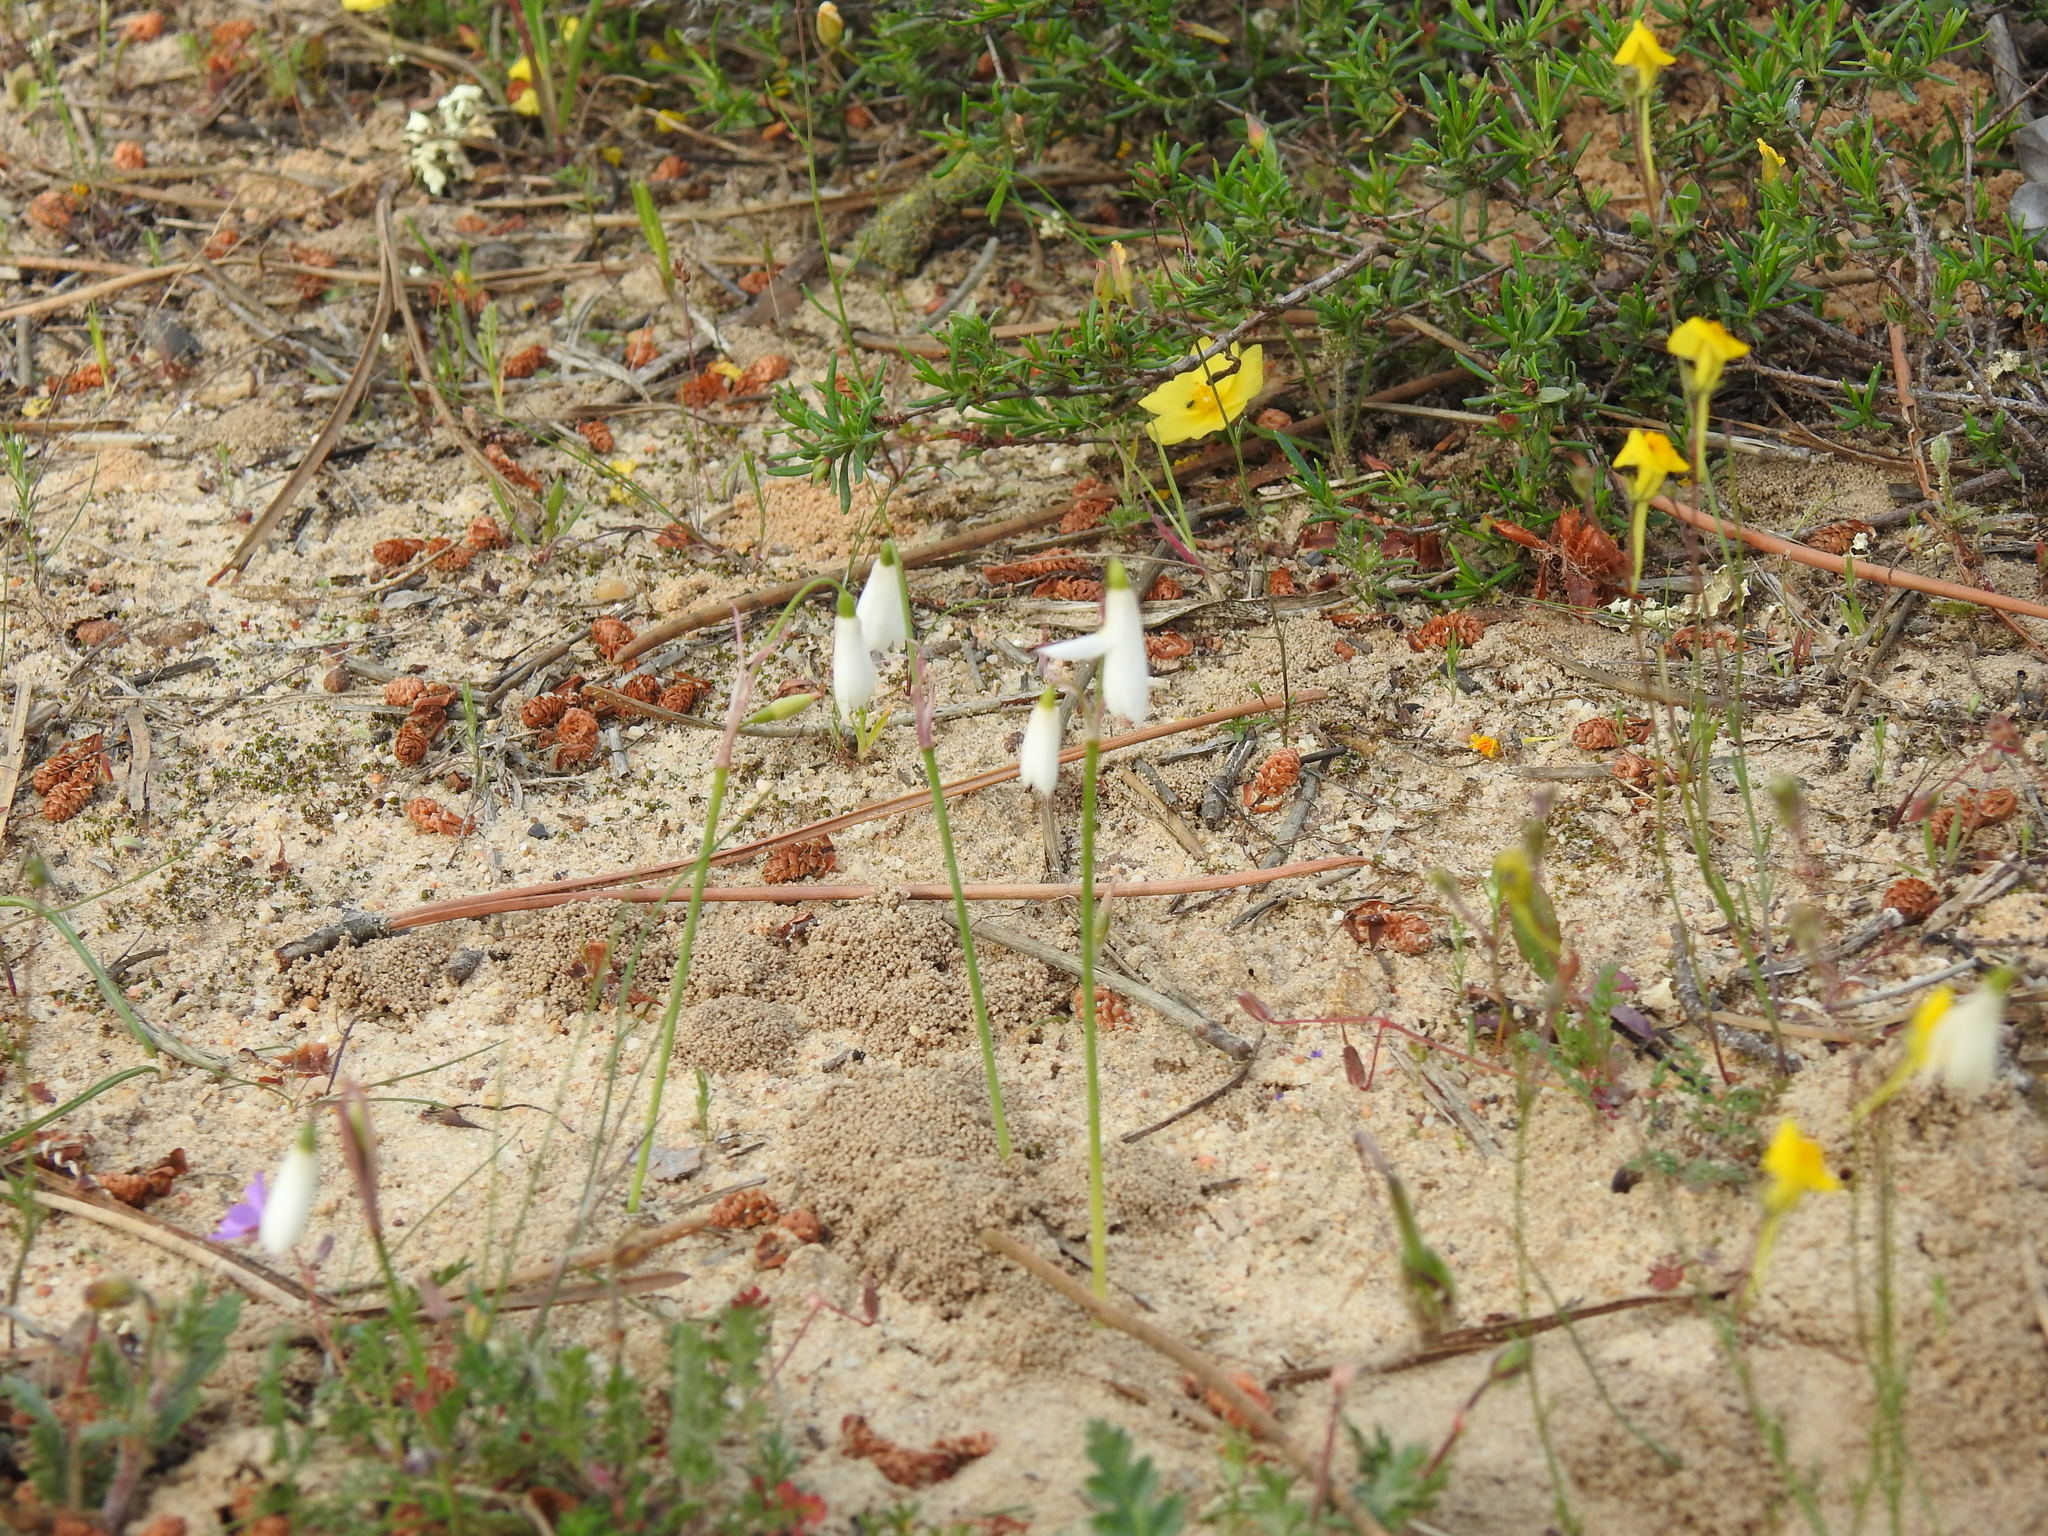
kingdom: Plantae
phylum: Tracheophyta
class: Liliopsida
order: Asparagales
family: Amaryllidaceae
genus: Acis
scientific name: Acis trichophylla
